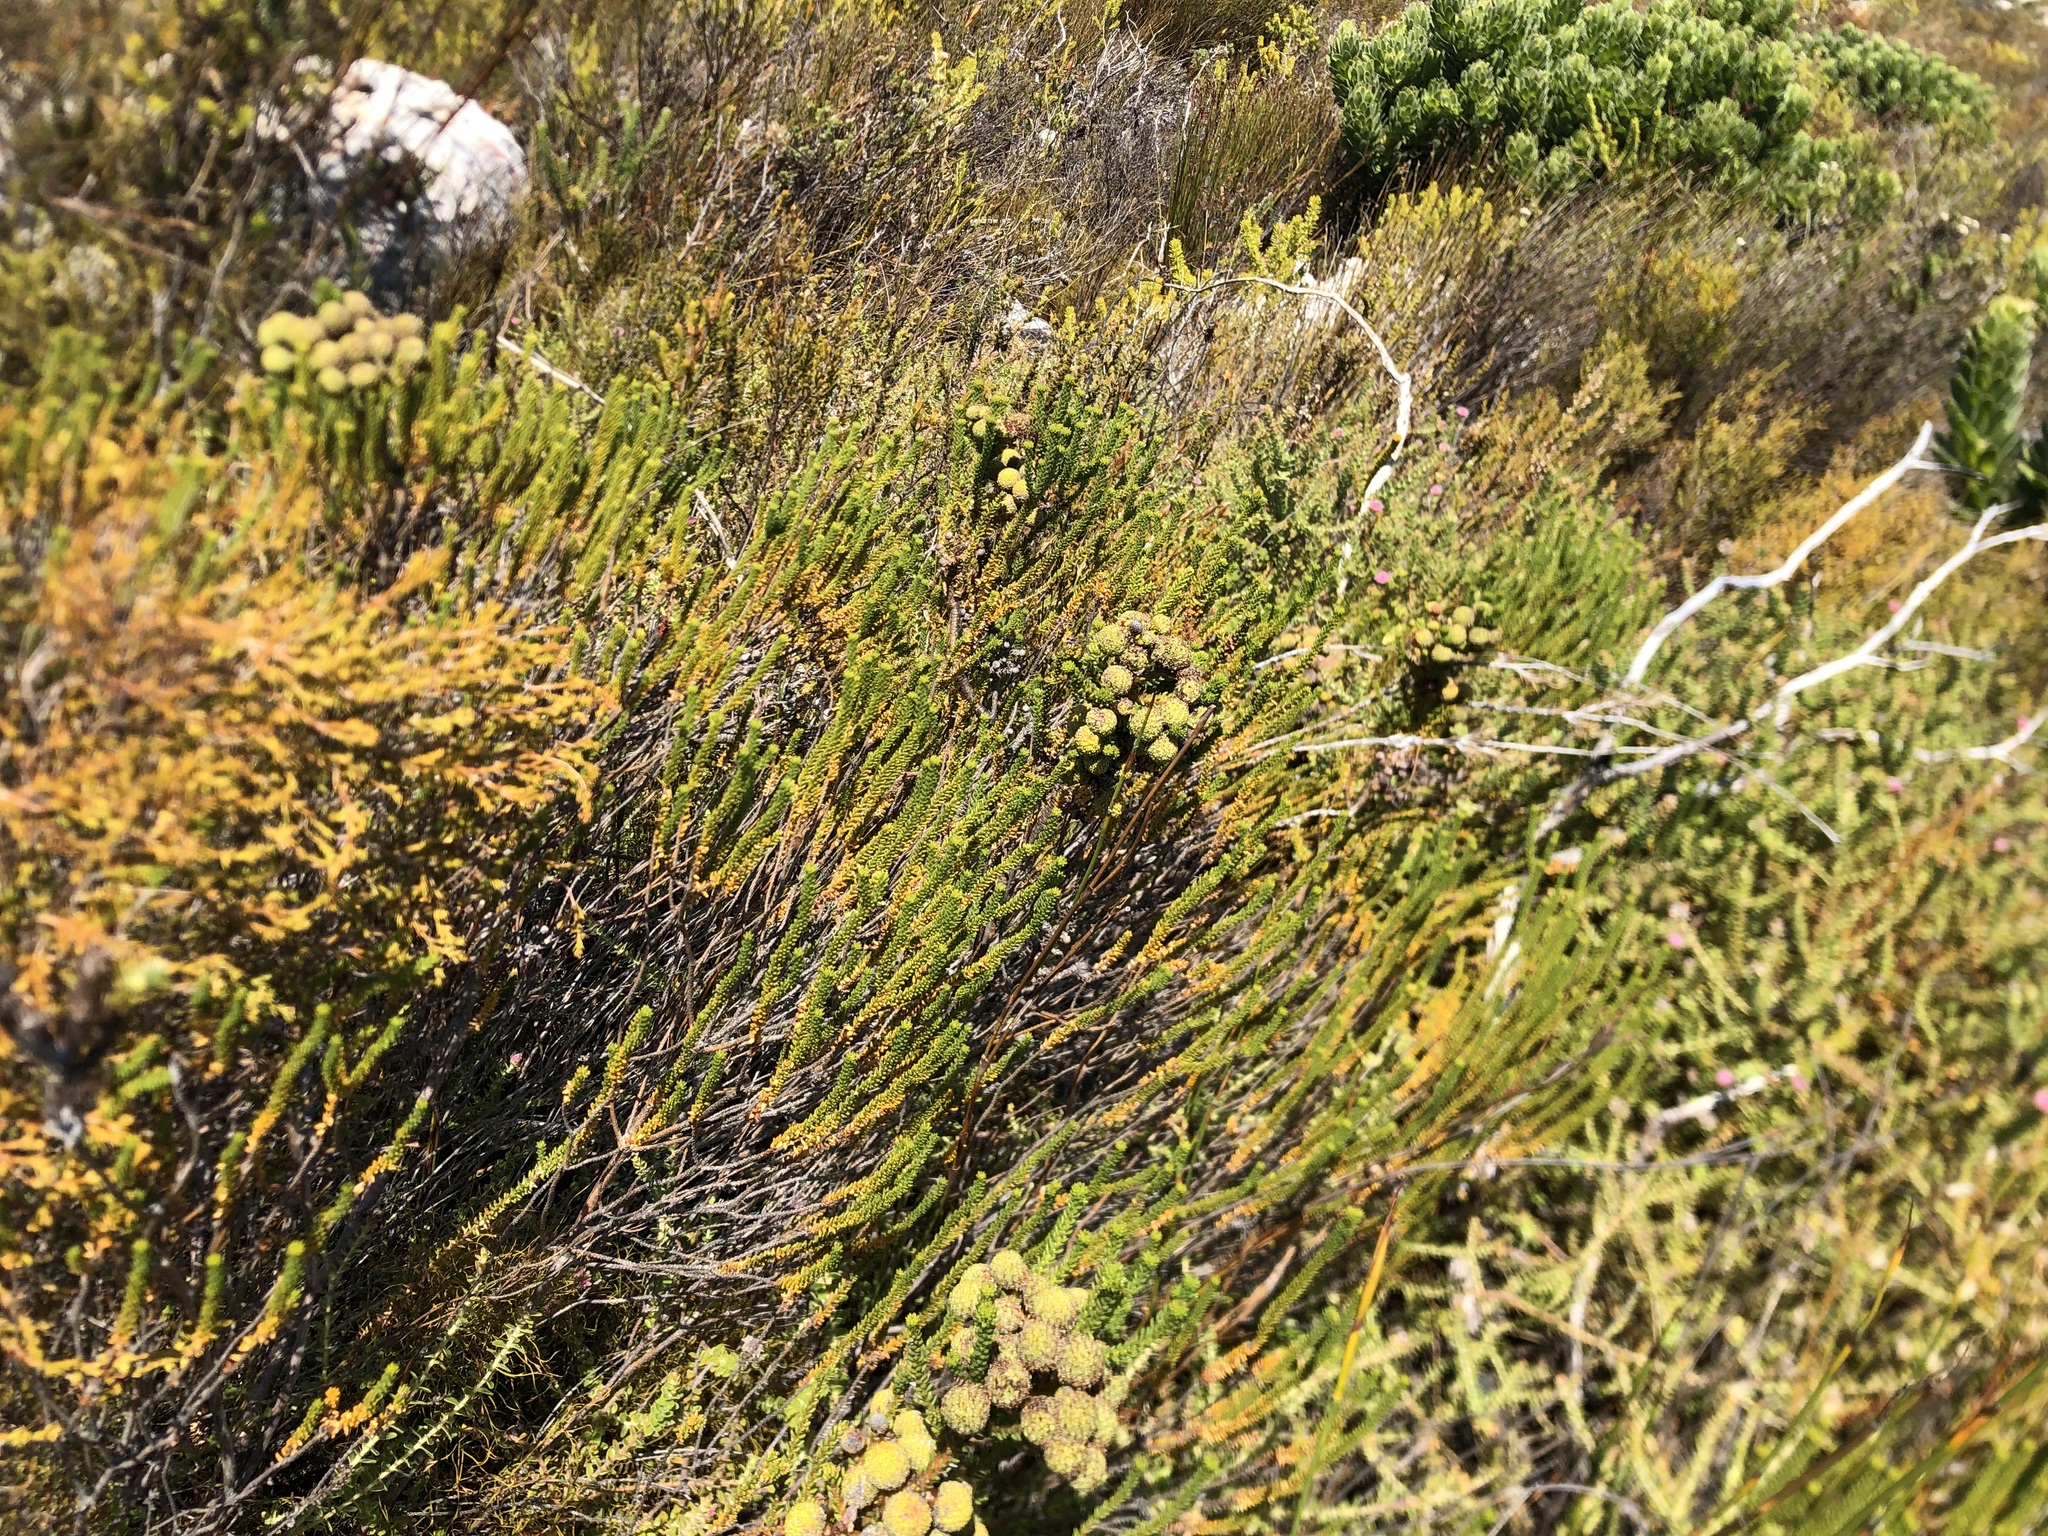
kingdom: Plantae
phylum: Tracheophyta
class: Magnoliopsida
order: Bruniales
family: Bruniaceae
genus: Berzelia
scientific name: Berzelia abrotanoides
